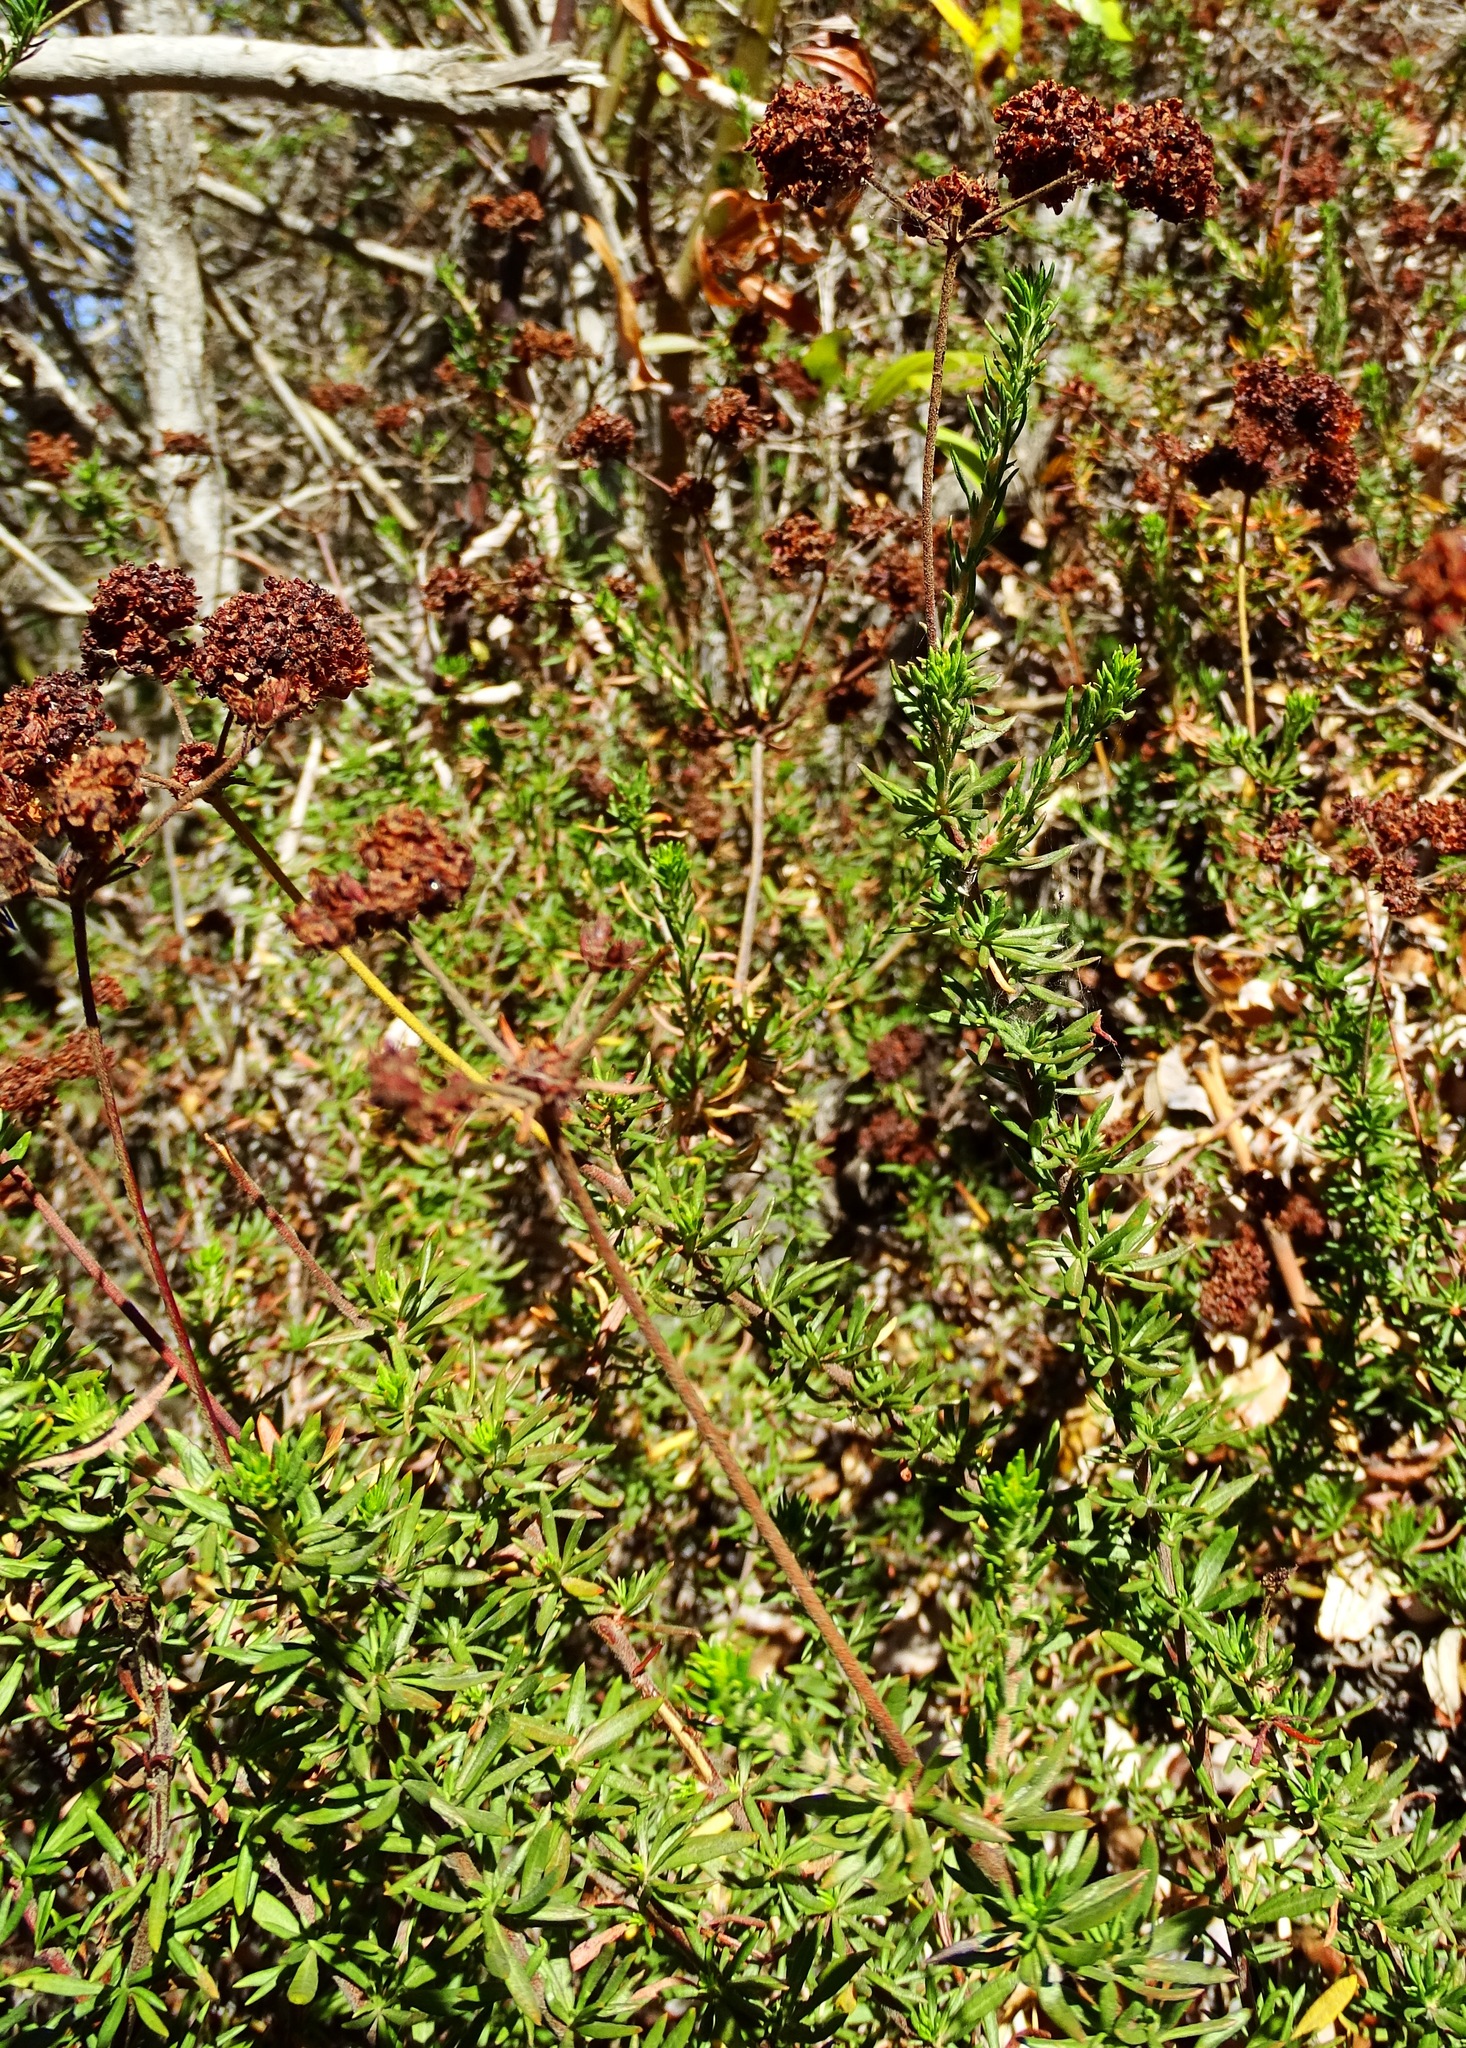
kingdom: Plantae
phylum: Tracheophyta
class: Magnoliopsida
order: Caryophyllales
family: Polygonaceae
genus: Eriogonum
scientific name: Eriogonum fasciculatum
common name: California wild buckwheat
